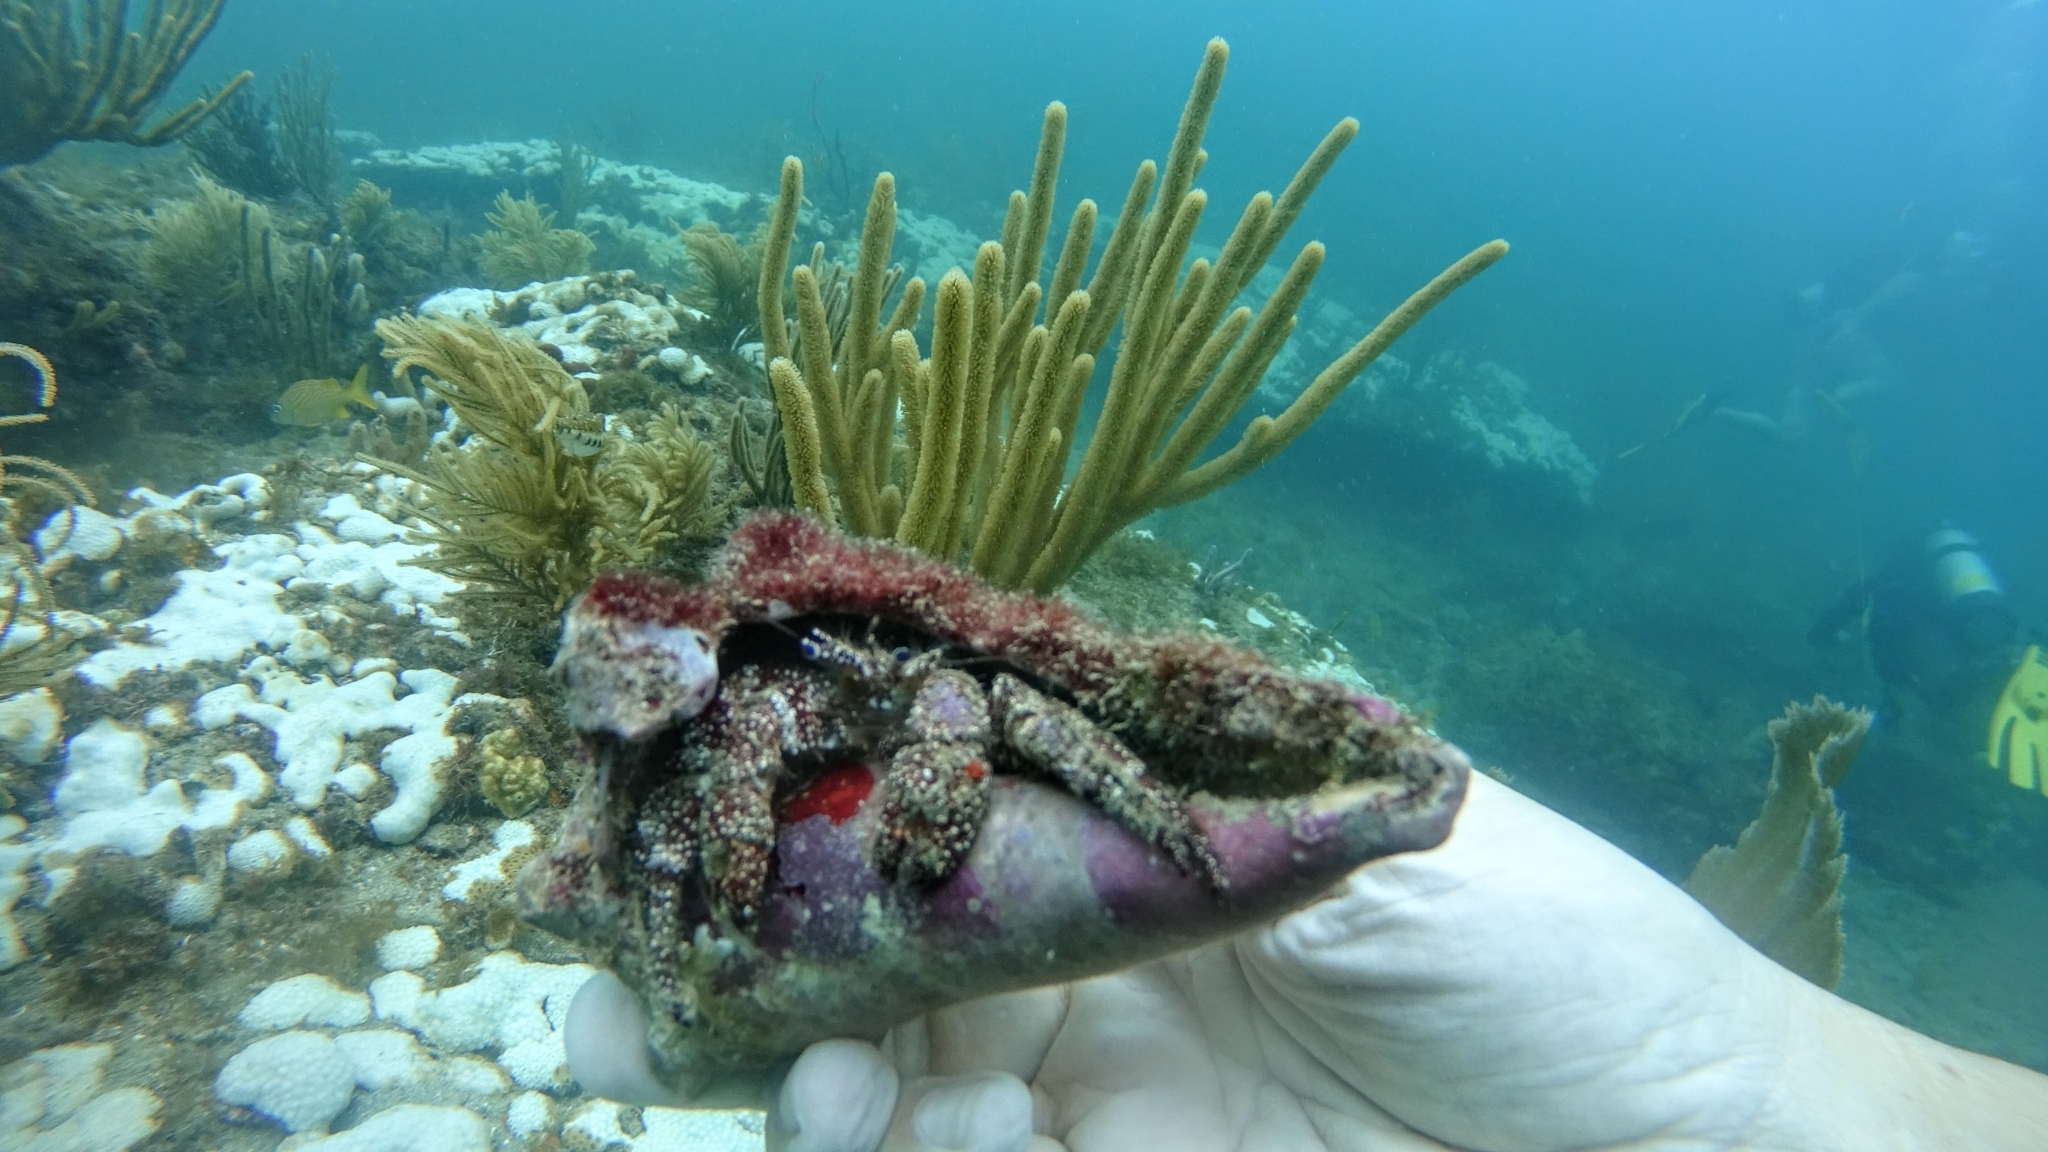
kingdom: Animalia
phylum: Arthropoda
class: Malacostraca
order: Decapoda
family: Diogenidae
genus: Petrochirus
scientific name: Petrochirus diogenes
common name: Giant hermit crab
